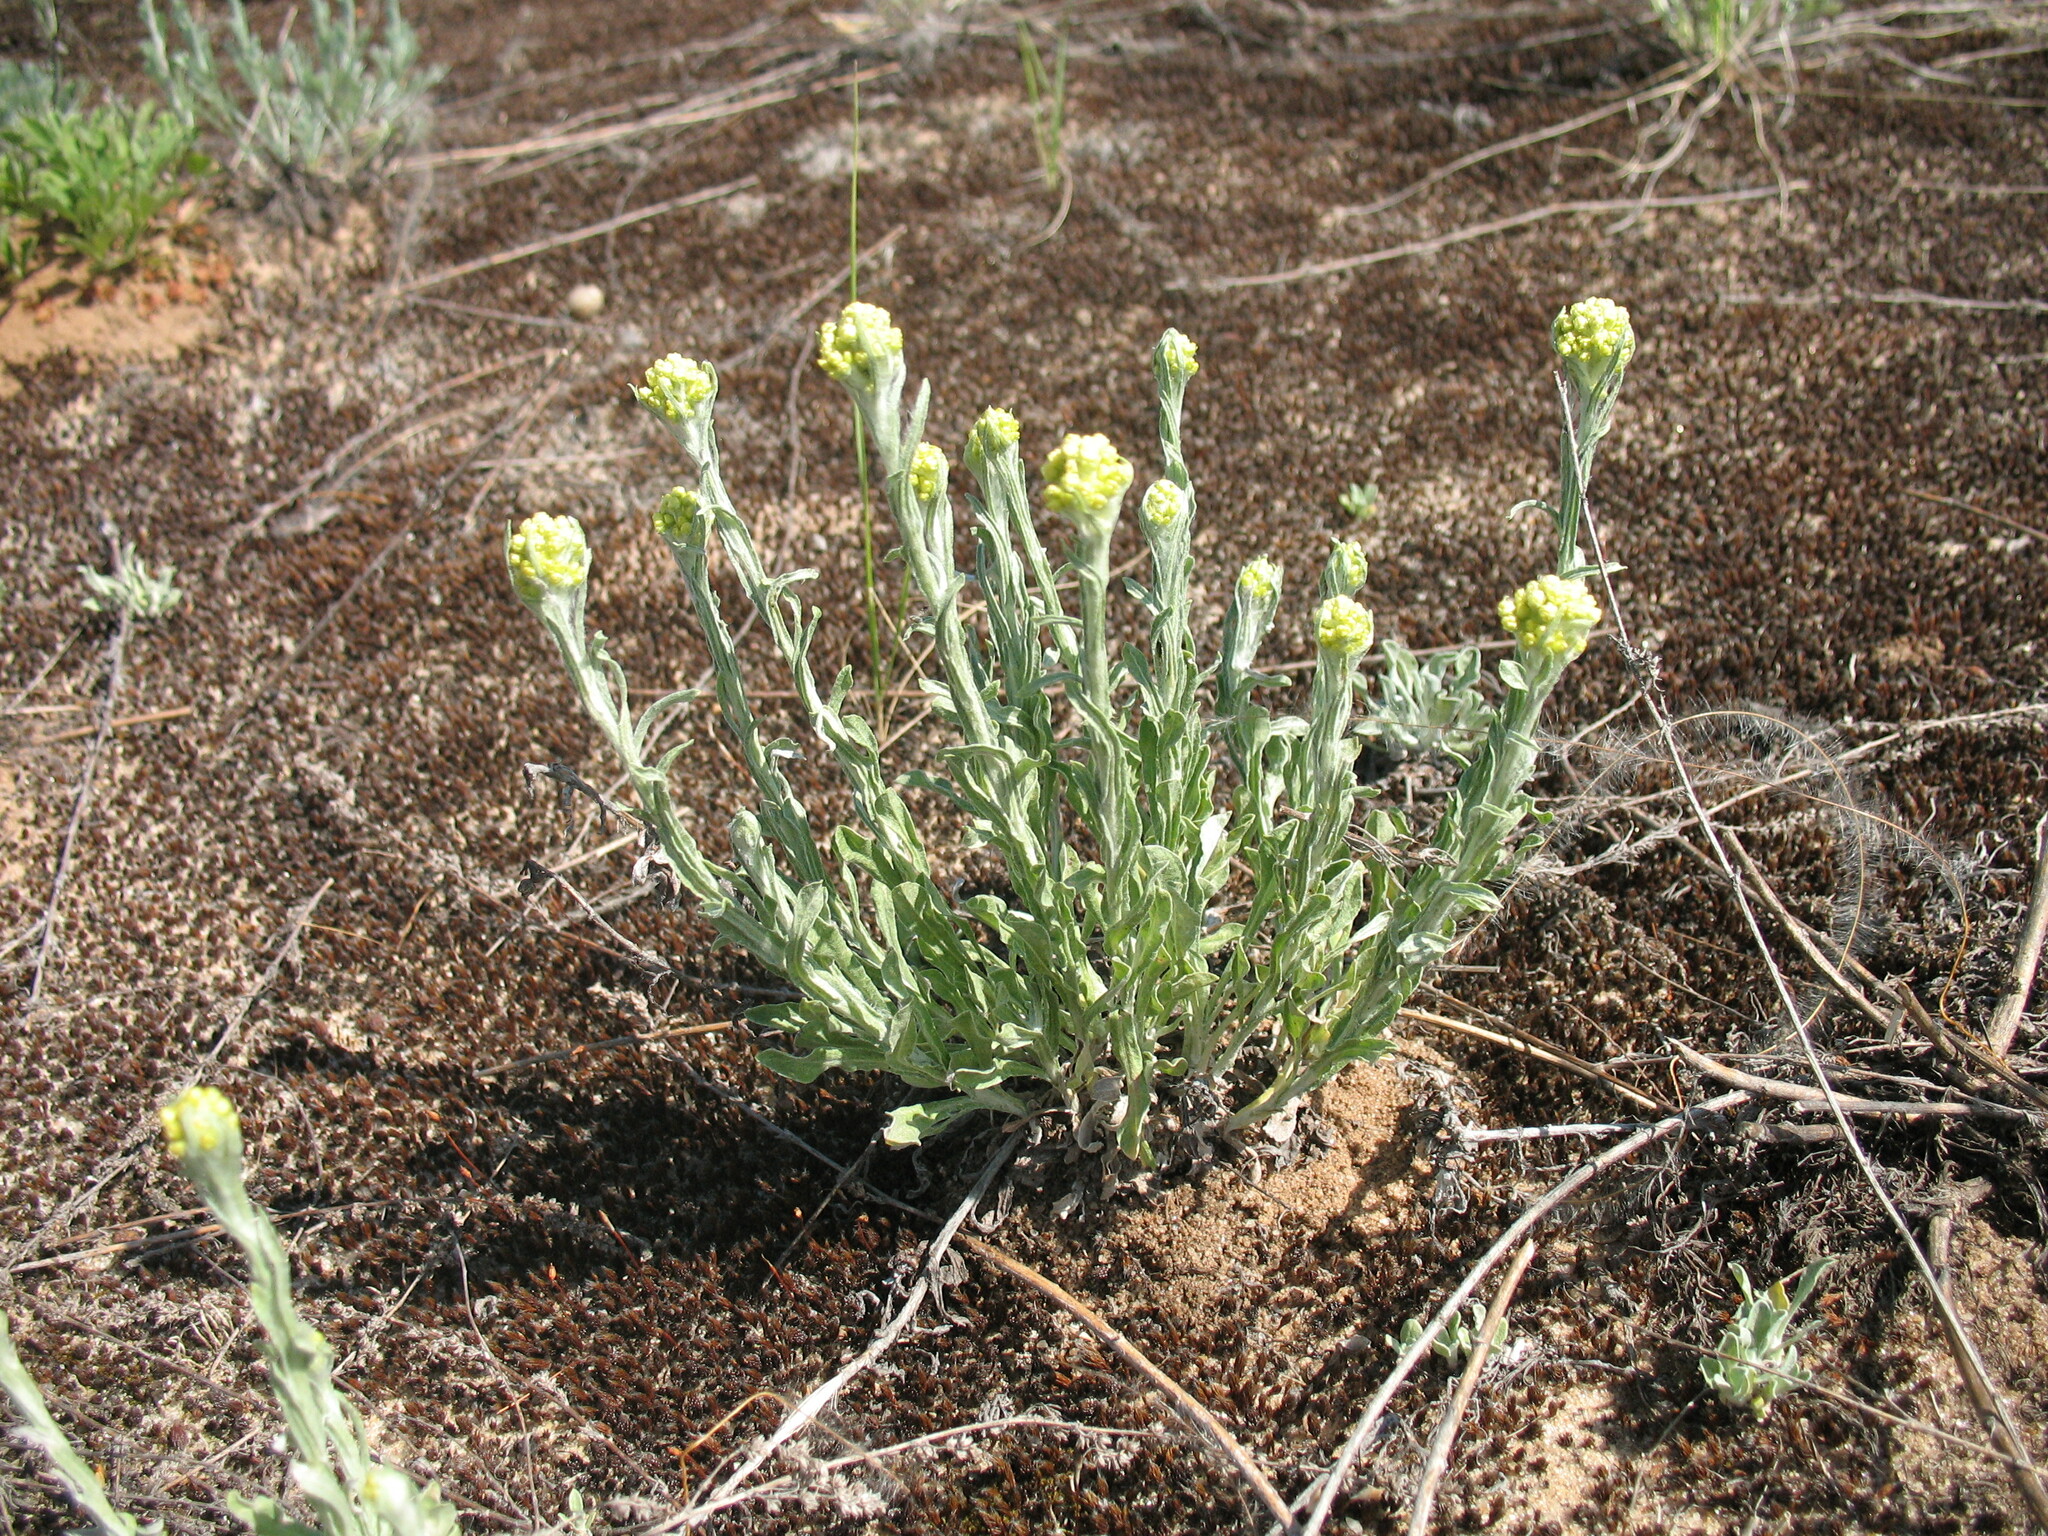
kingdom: Plantae
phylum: Tracheophyta
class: Magnoliopsida
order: Asterales
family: Asteraceae
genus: Helichrysum
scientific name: Helichrysum arenarium
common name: Strawflower
